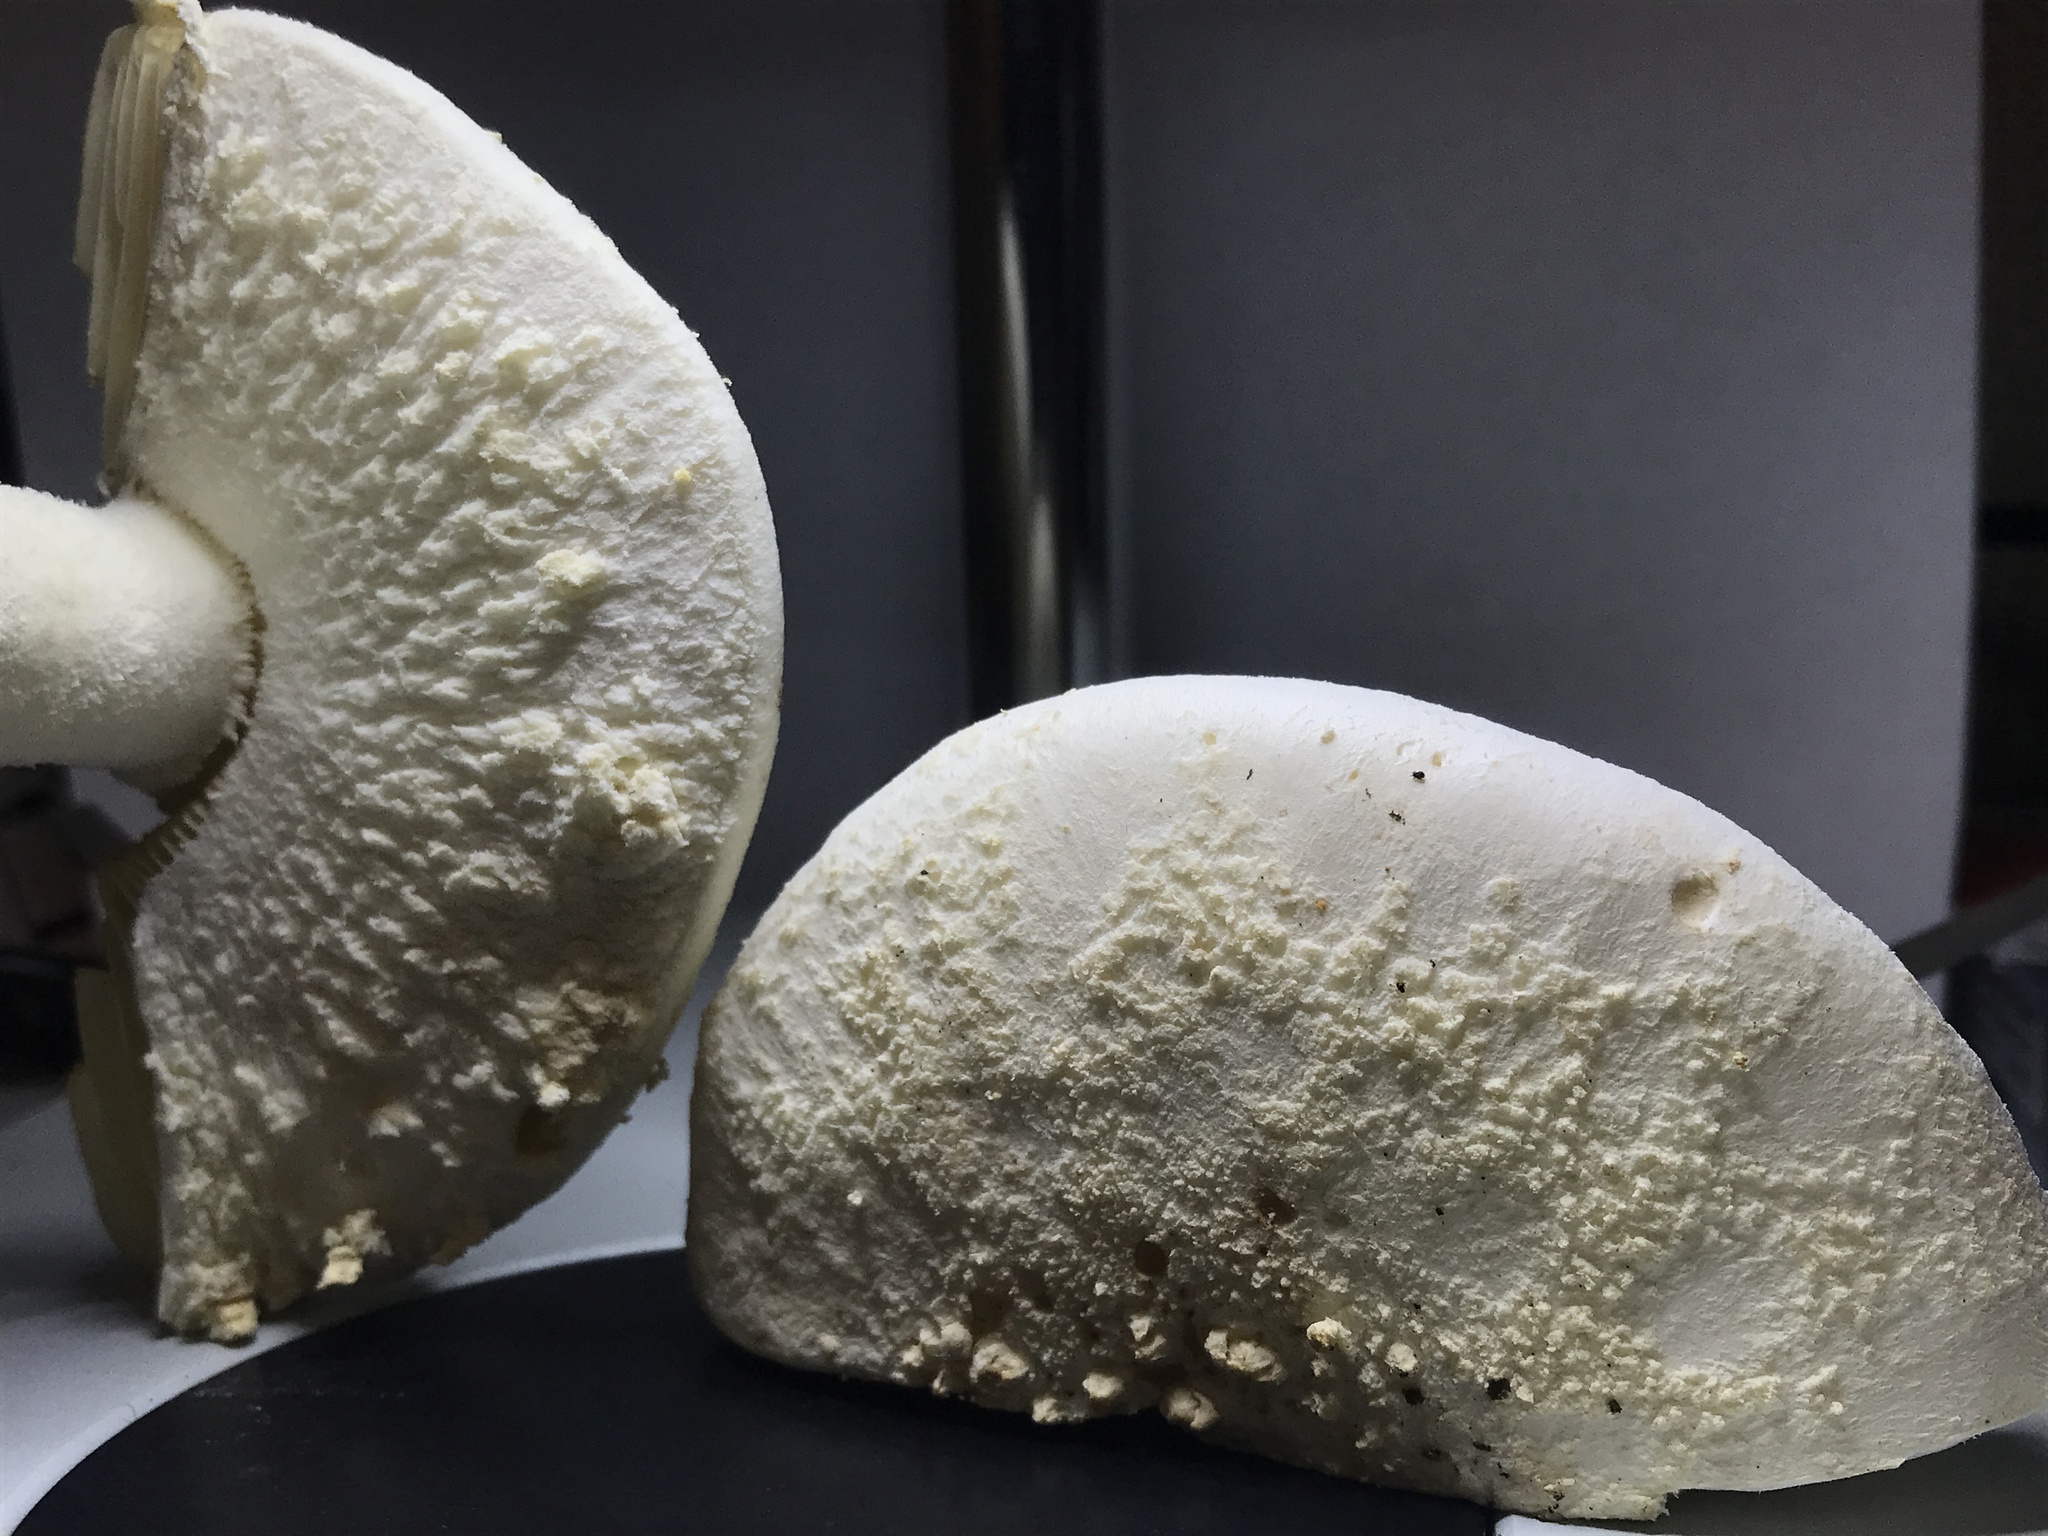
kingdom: Fungi
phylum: Basidiomycota
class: Agaricomycetes
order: Agaricales
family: Amanitaceae
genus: Amanita
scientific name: Amanita rhopalopus
